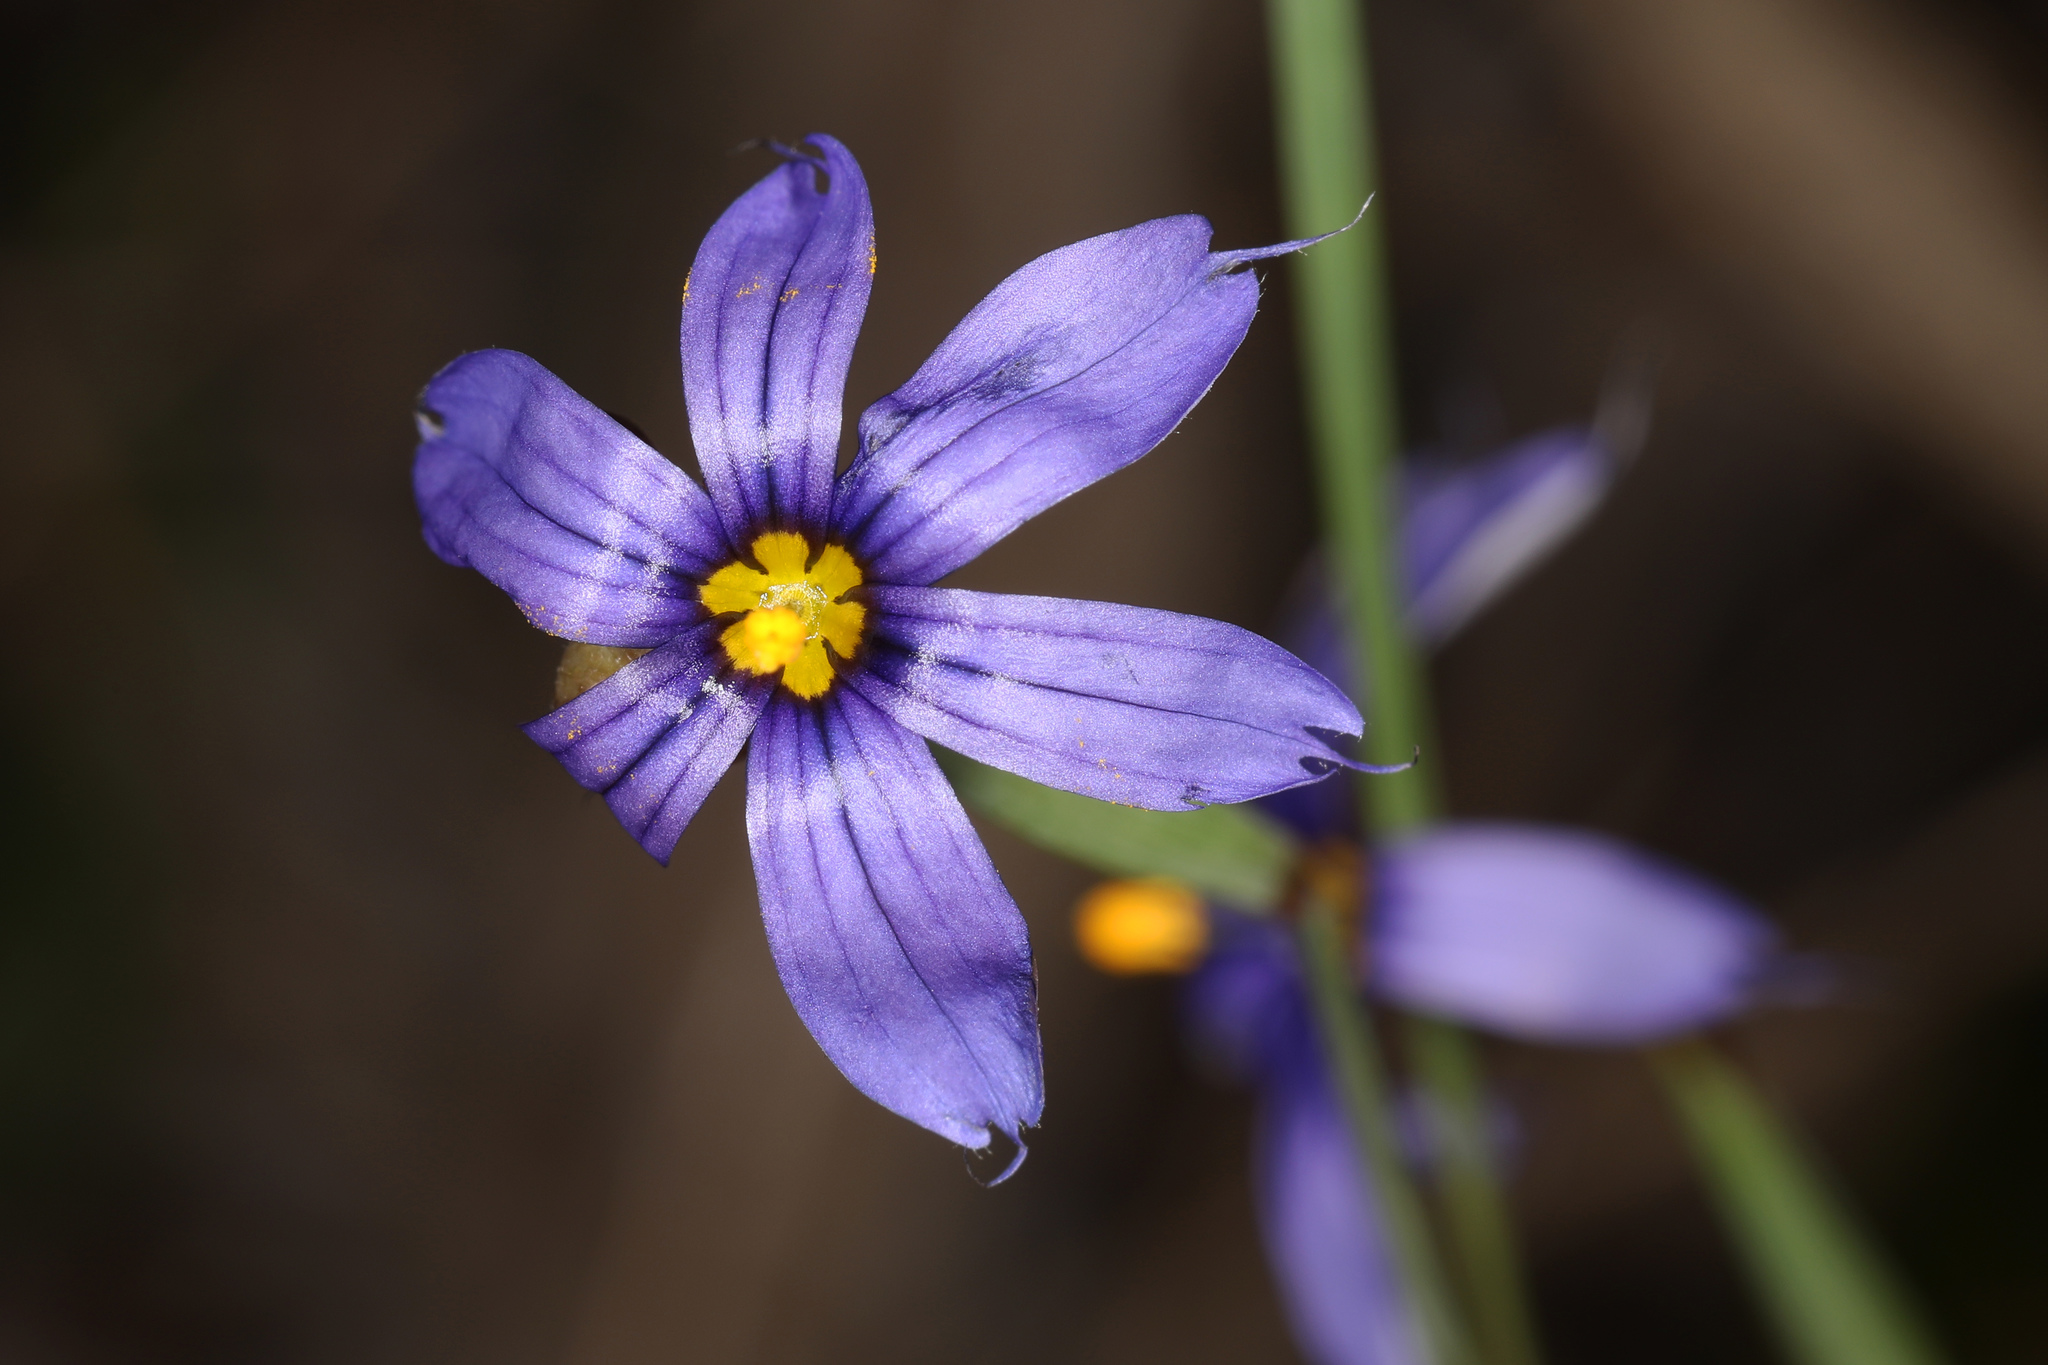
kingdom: Plantae
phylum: Tracheophyta
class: Liliopsida
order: Asparagales
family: Iridaceae
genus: Sisyrinchium
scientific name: Sisyrinchium angustifolium
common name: Narrow-leaf blue-eyed-grass
